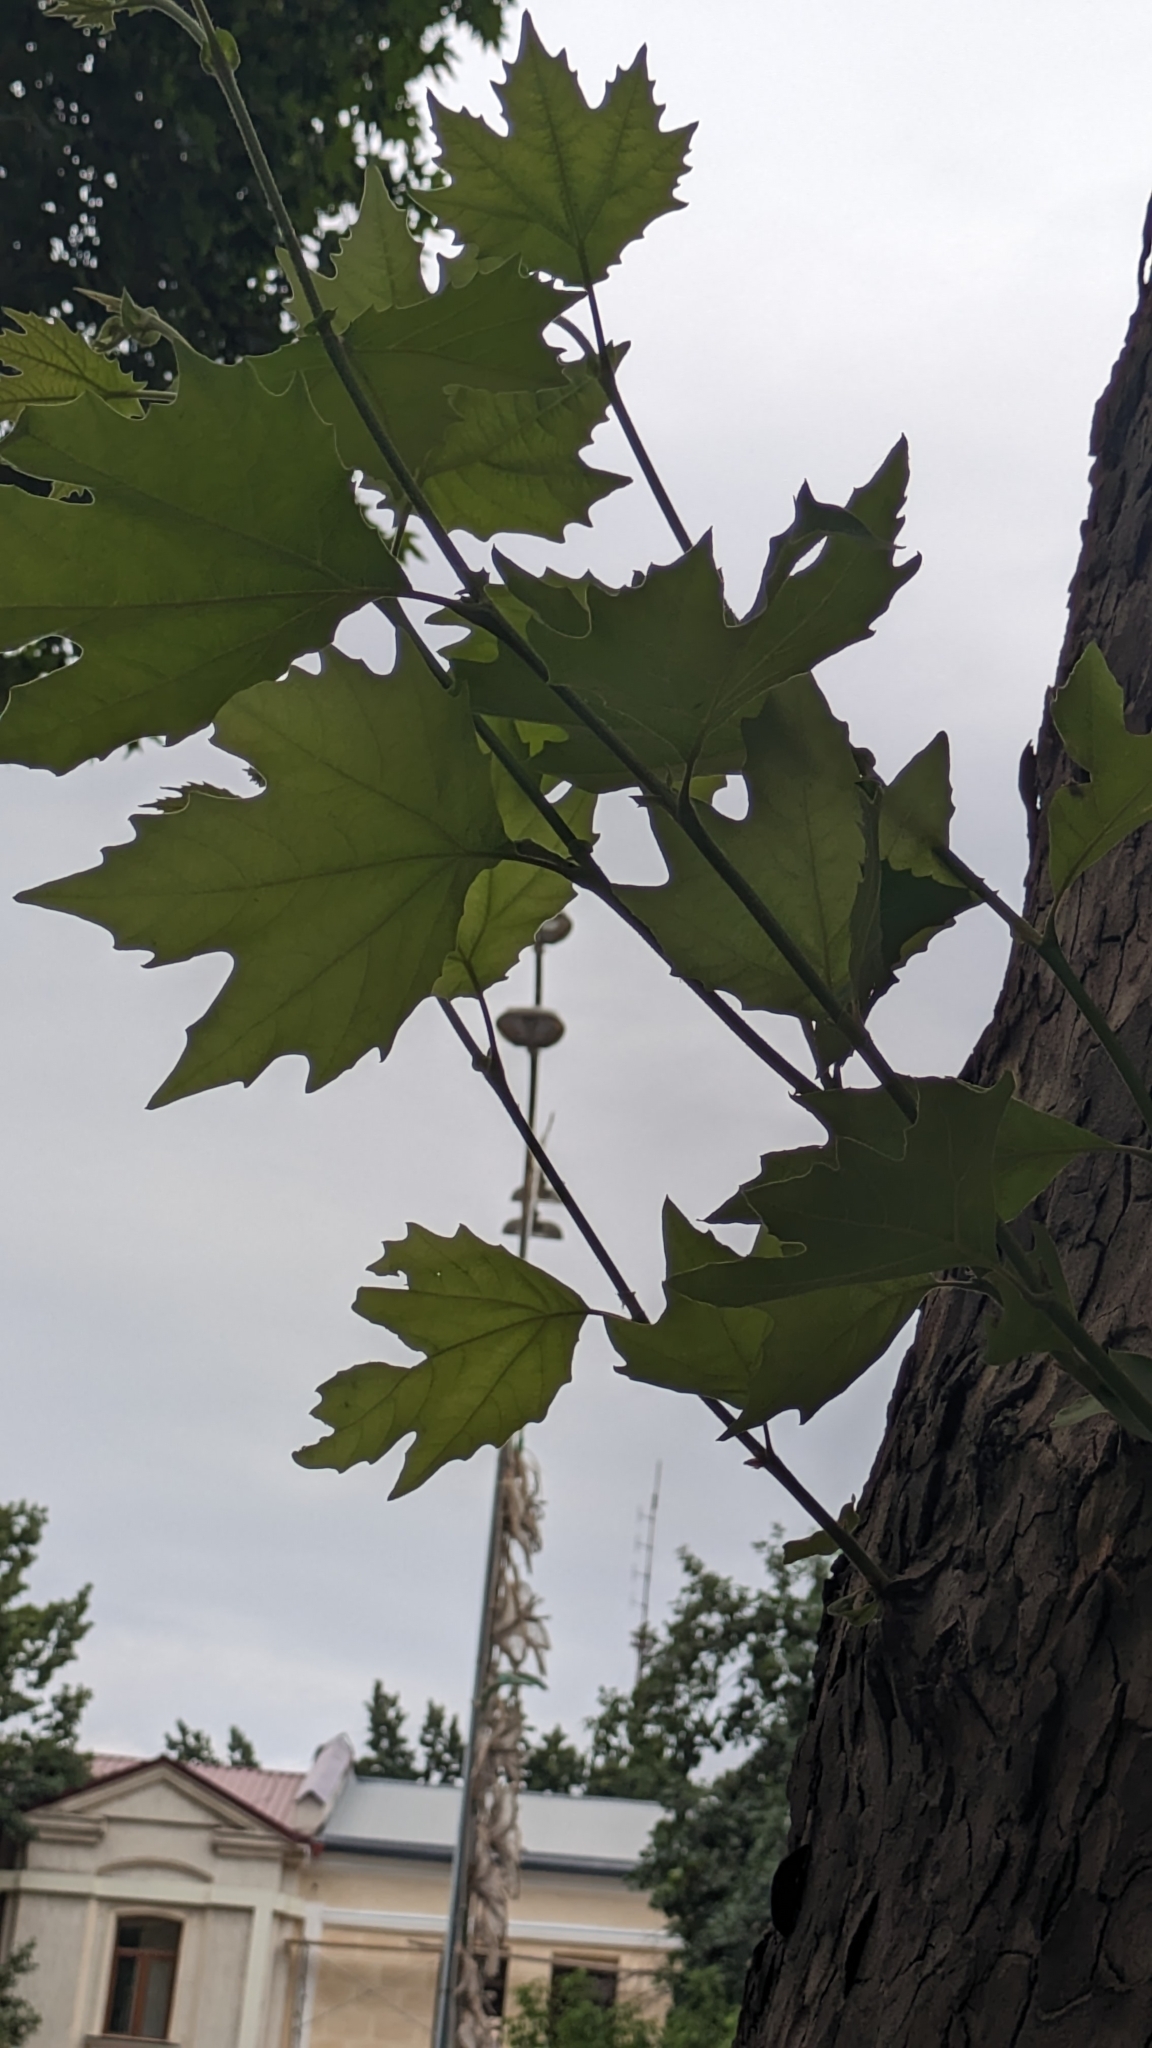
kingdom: Plantae
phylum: Tracheophyta
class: Magnoliopsida
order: Proteales
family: Platanaceae
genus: Platanus
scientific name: Platanus orientalis
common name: Oriental plane
